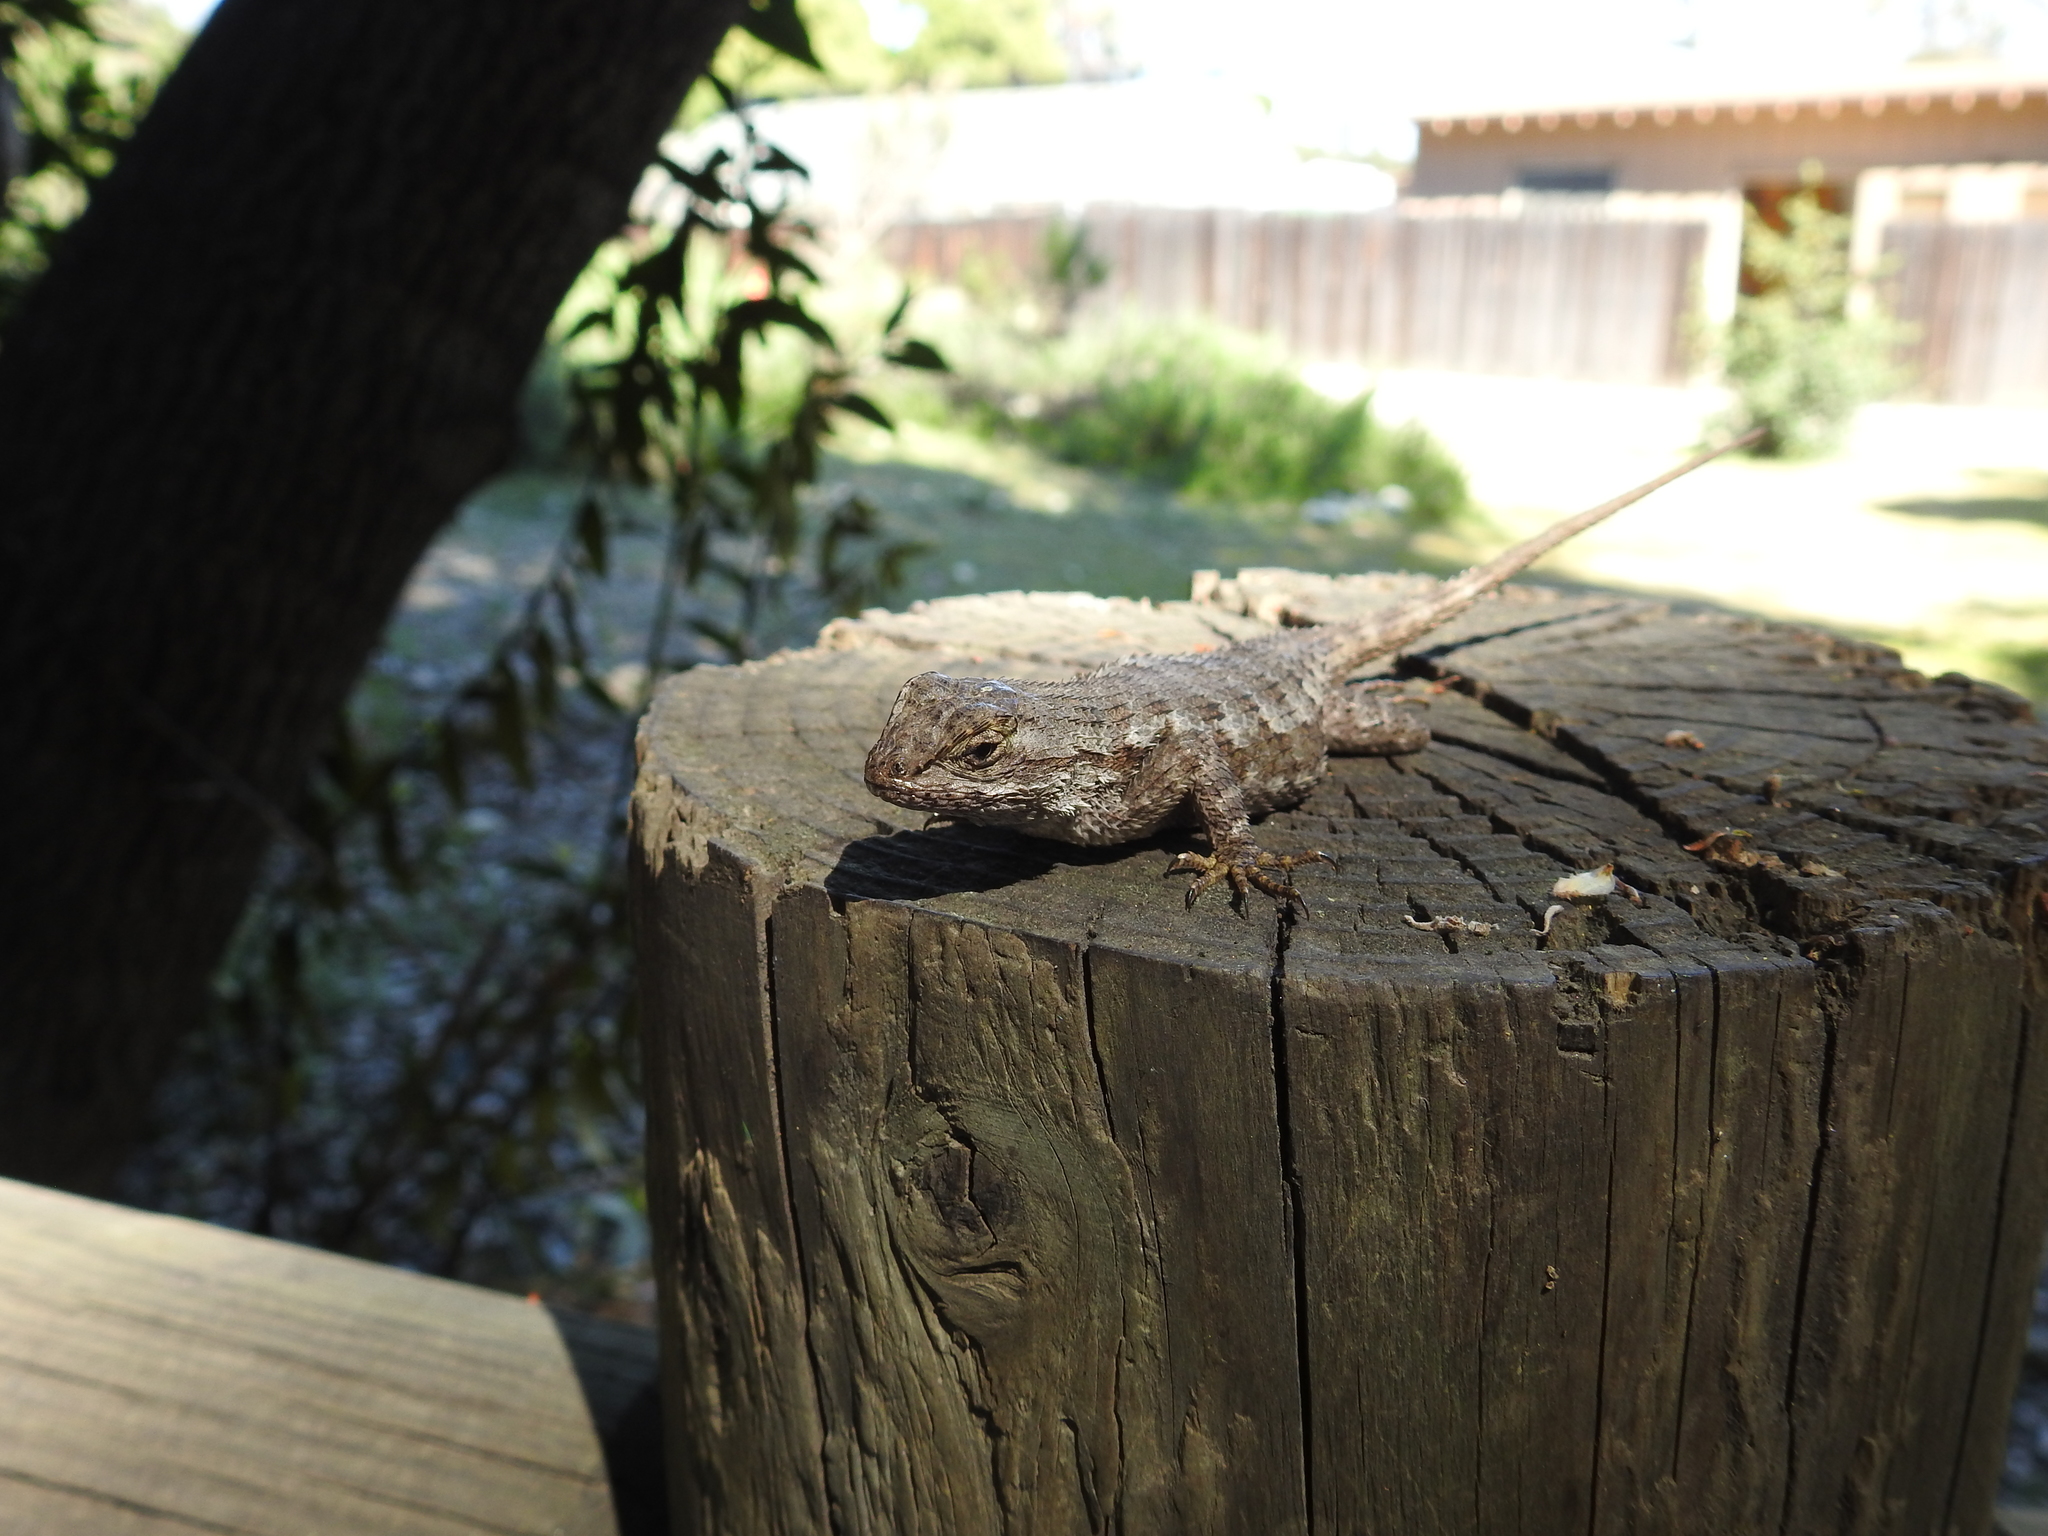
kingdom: Animalia
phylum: Chordata
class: Squamata
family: Phrynosomatidae
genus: Sceloporus
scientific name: Sceloporus occidentalis
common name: Western fence lizard
